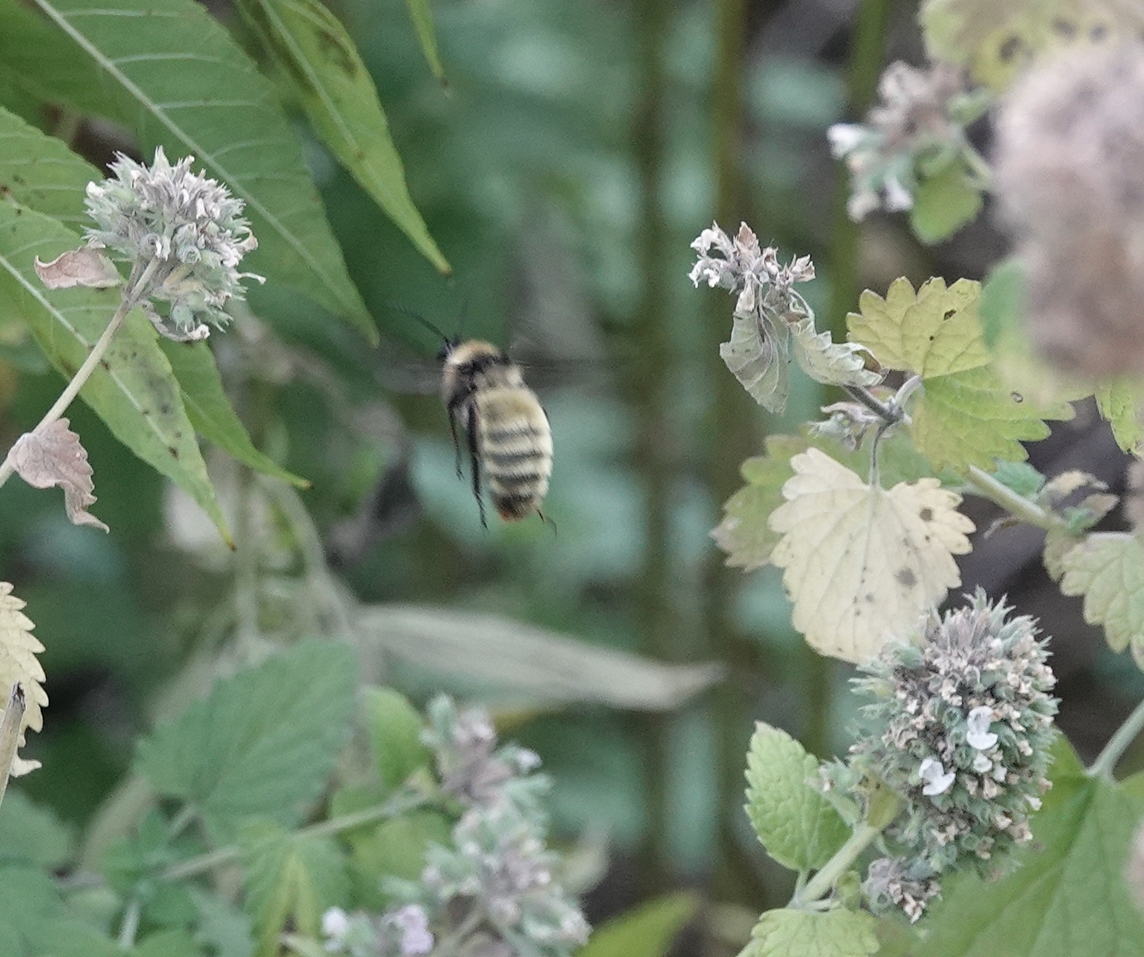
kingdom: Animalia
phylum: Arthropoda
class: Insecta
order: Hymenoptera
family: Apidae
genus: Bombus
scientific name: Bombus pensylvanicus
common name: Bumble bee
